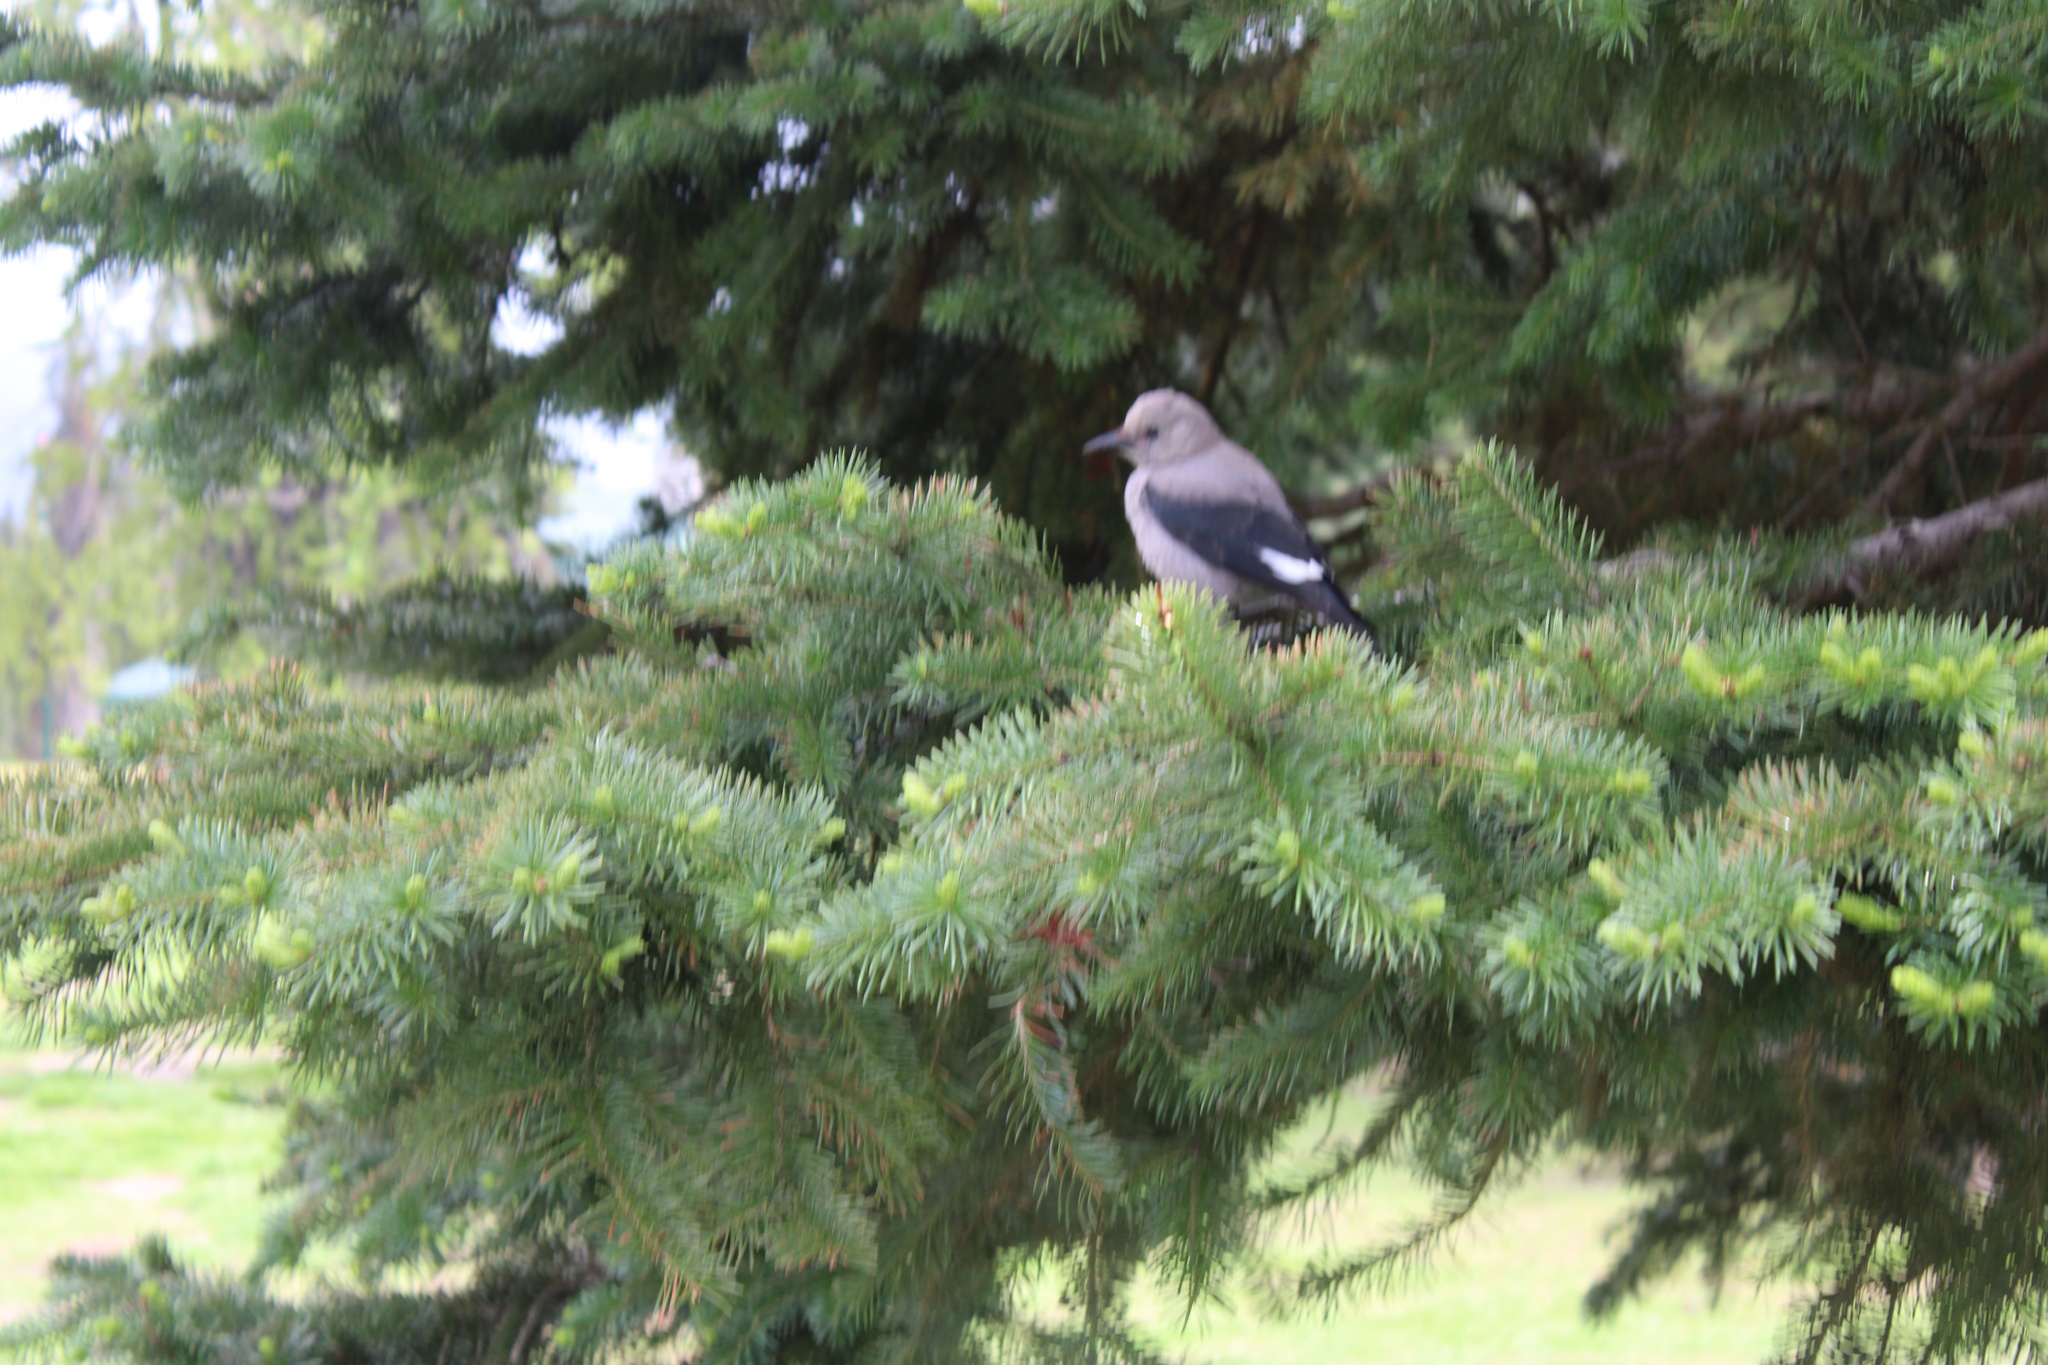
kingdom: Animalia
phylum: Chordata
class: Aves
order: Passeriformes
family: Corvidae
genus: Nucifraga
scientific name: Nucifraga columbiana
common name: Clark's nutcracker
